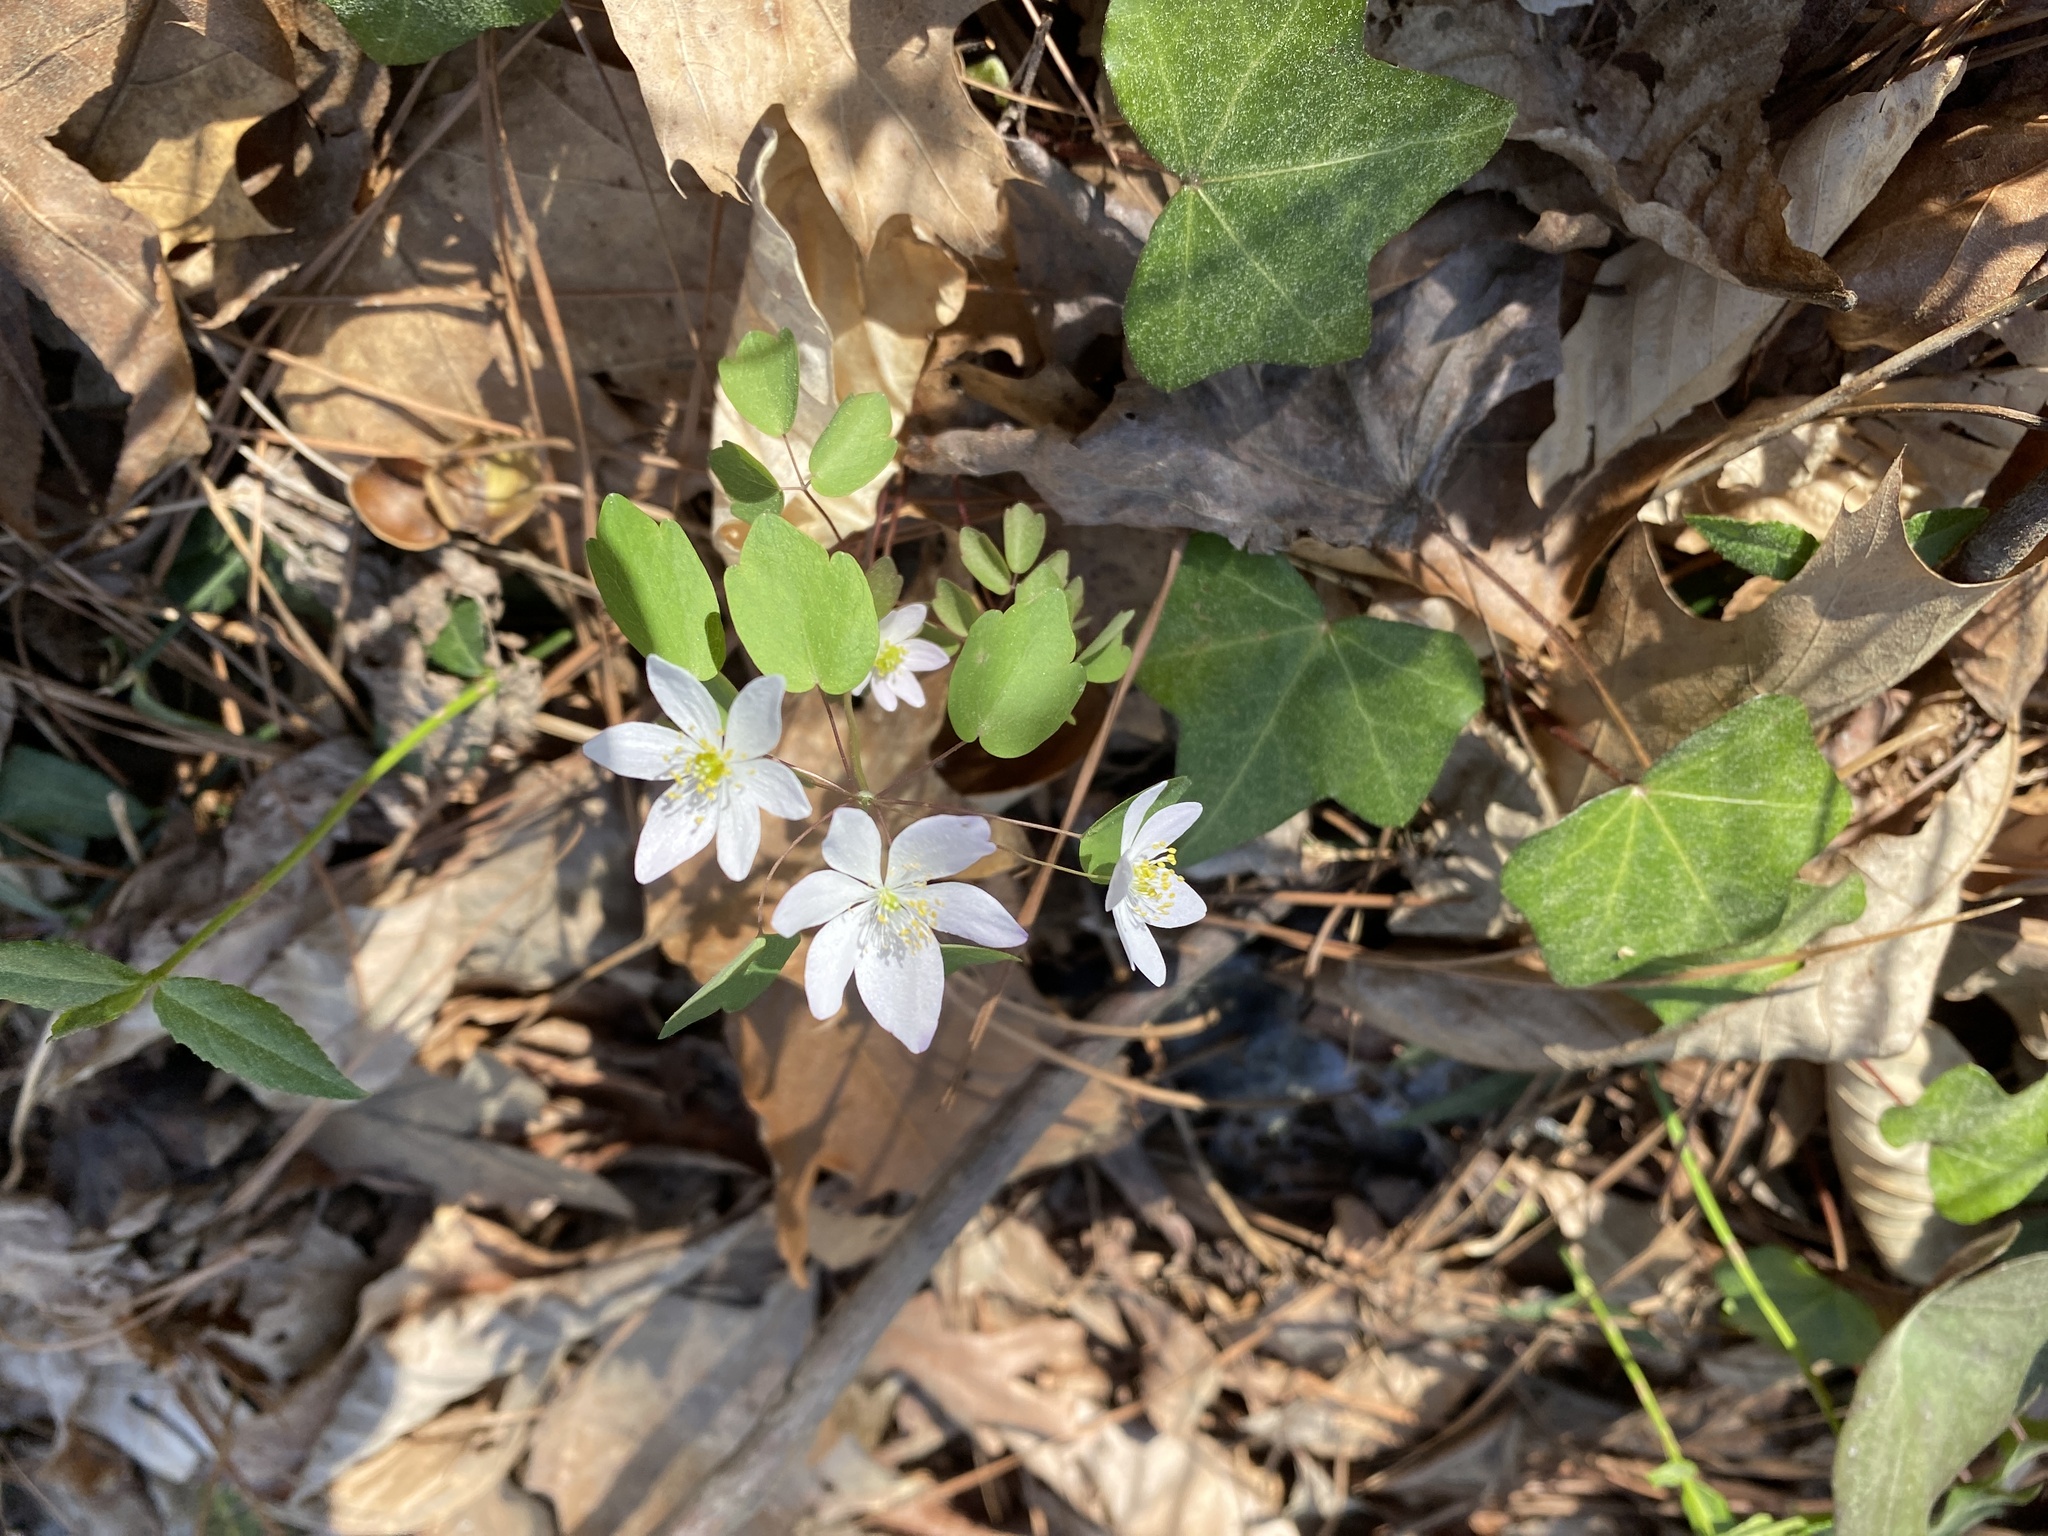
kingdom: Plantae
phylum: Tracheophyta
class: Magnoliopsida
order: Ranunculales
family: Ranunculaceae
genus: Thalictrum
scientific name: Thalictrum thalictroides
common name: Rue-anemone
